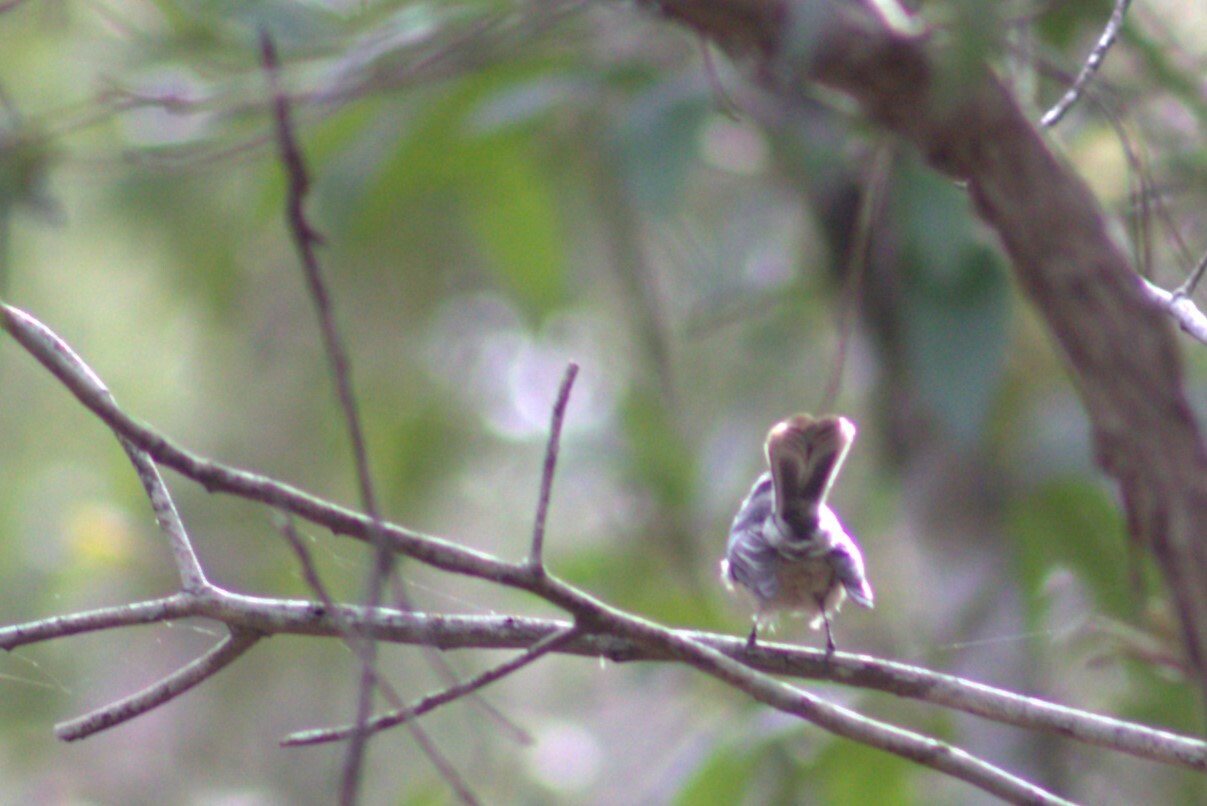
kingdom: Animalia
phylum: Chordata
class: Aves
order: Passeriformes
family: Rhipiduridae
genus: Rhipidura
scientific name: Rhipidura albiscapa
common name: Grey fantail
